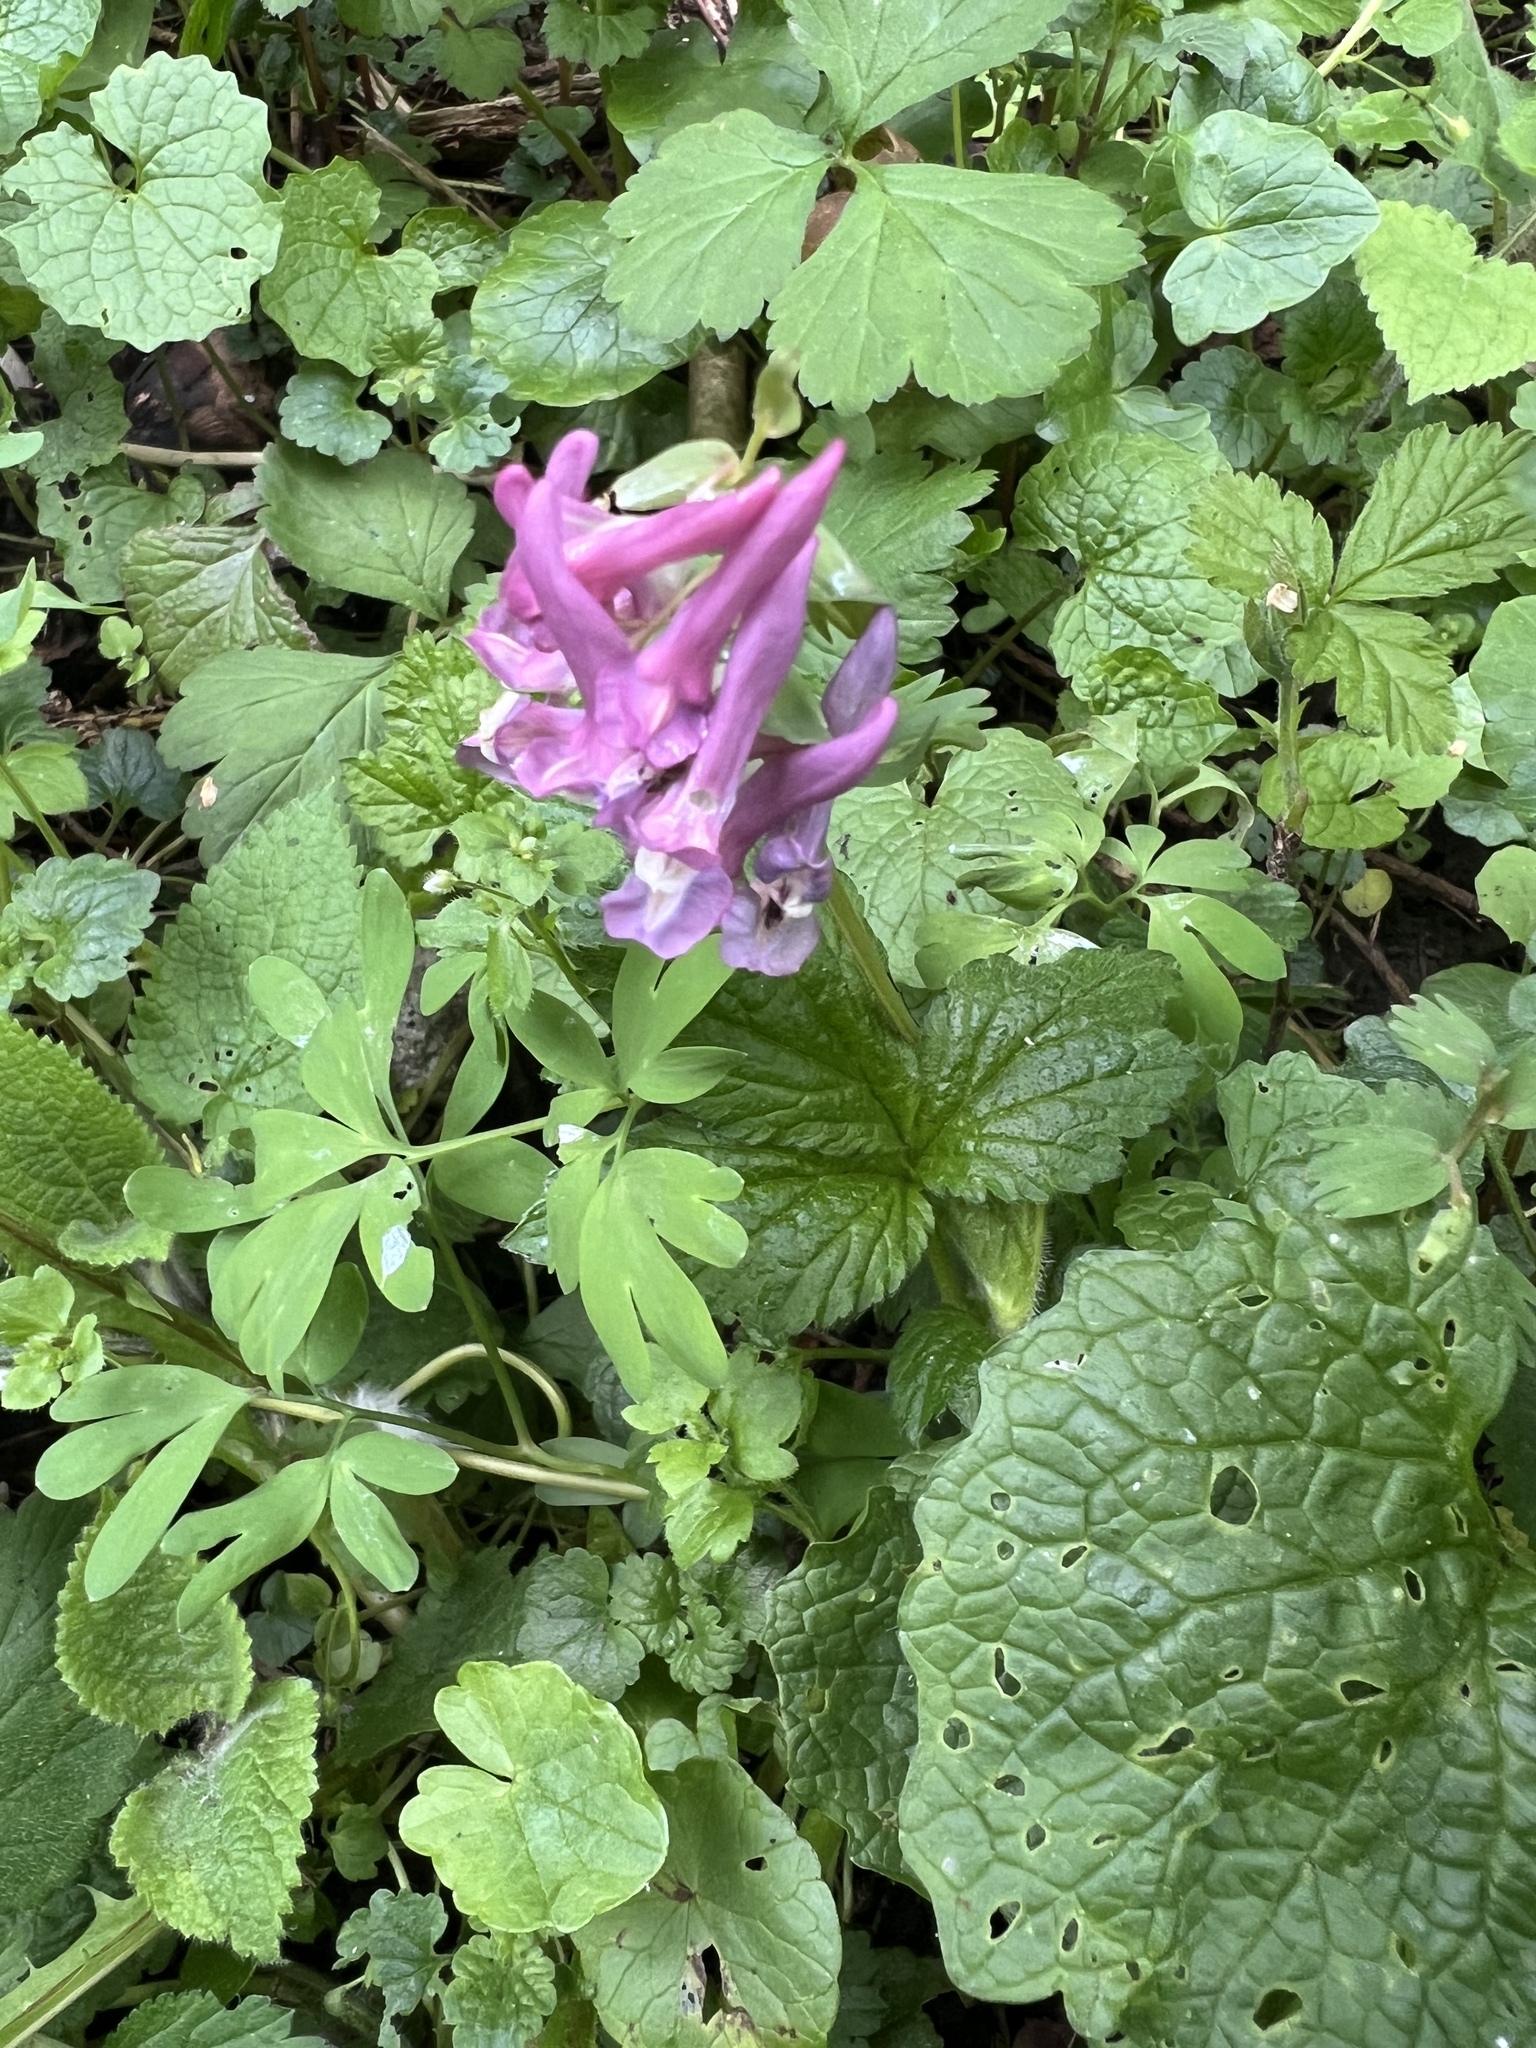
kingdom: Plantae
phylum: Tracheophyta
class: Magnoliopsida
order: Ranunculales
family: Papaveraceae
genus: Corydalis
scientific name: Corydalis solida
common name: Bird-in-a-bush
